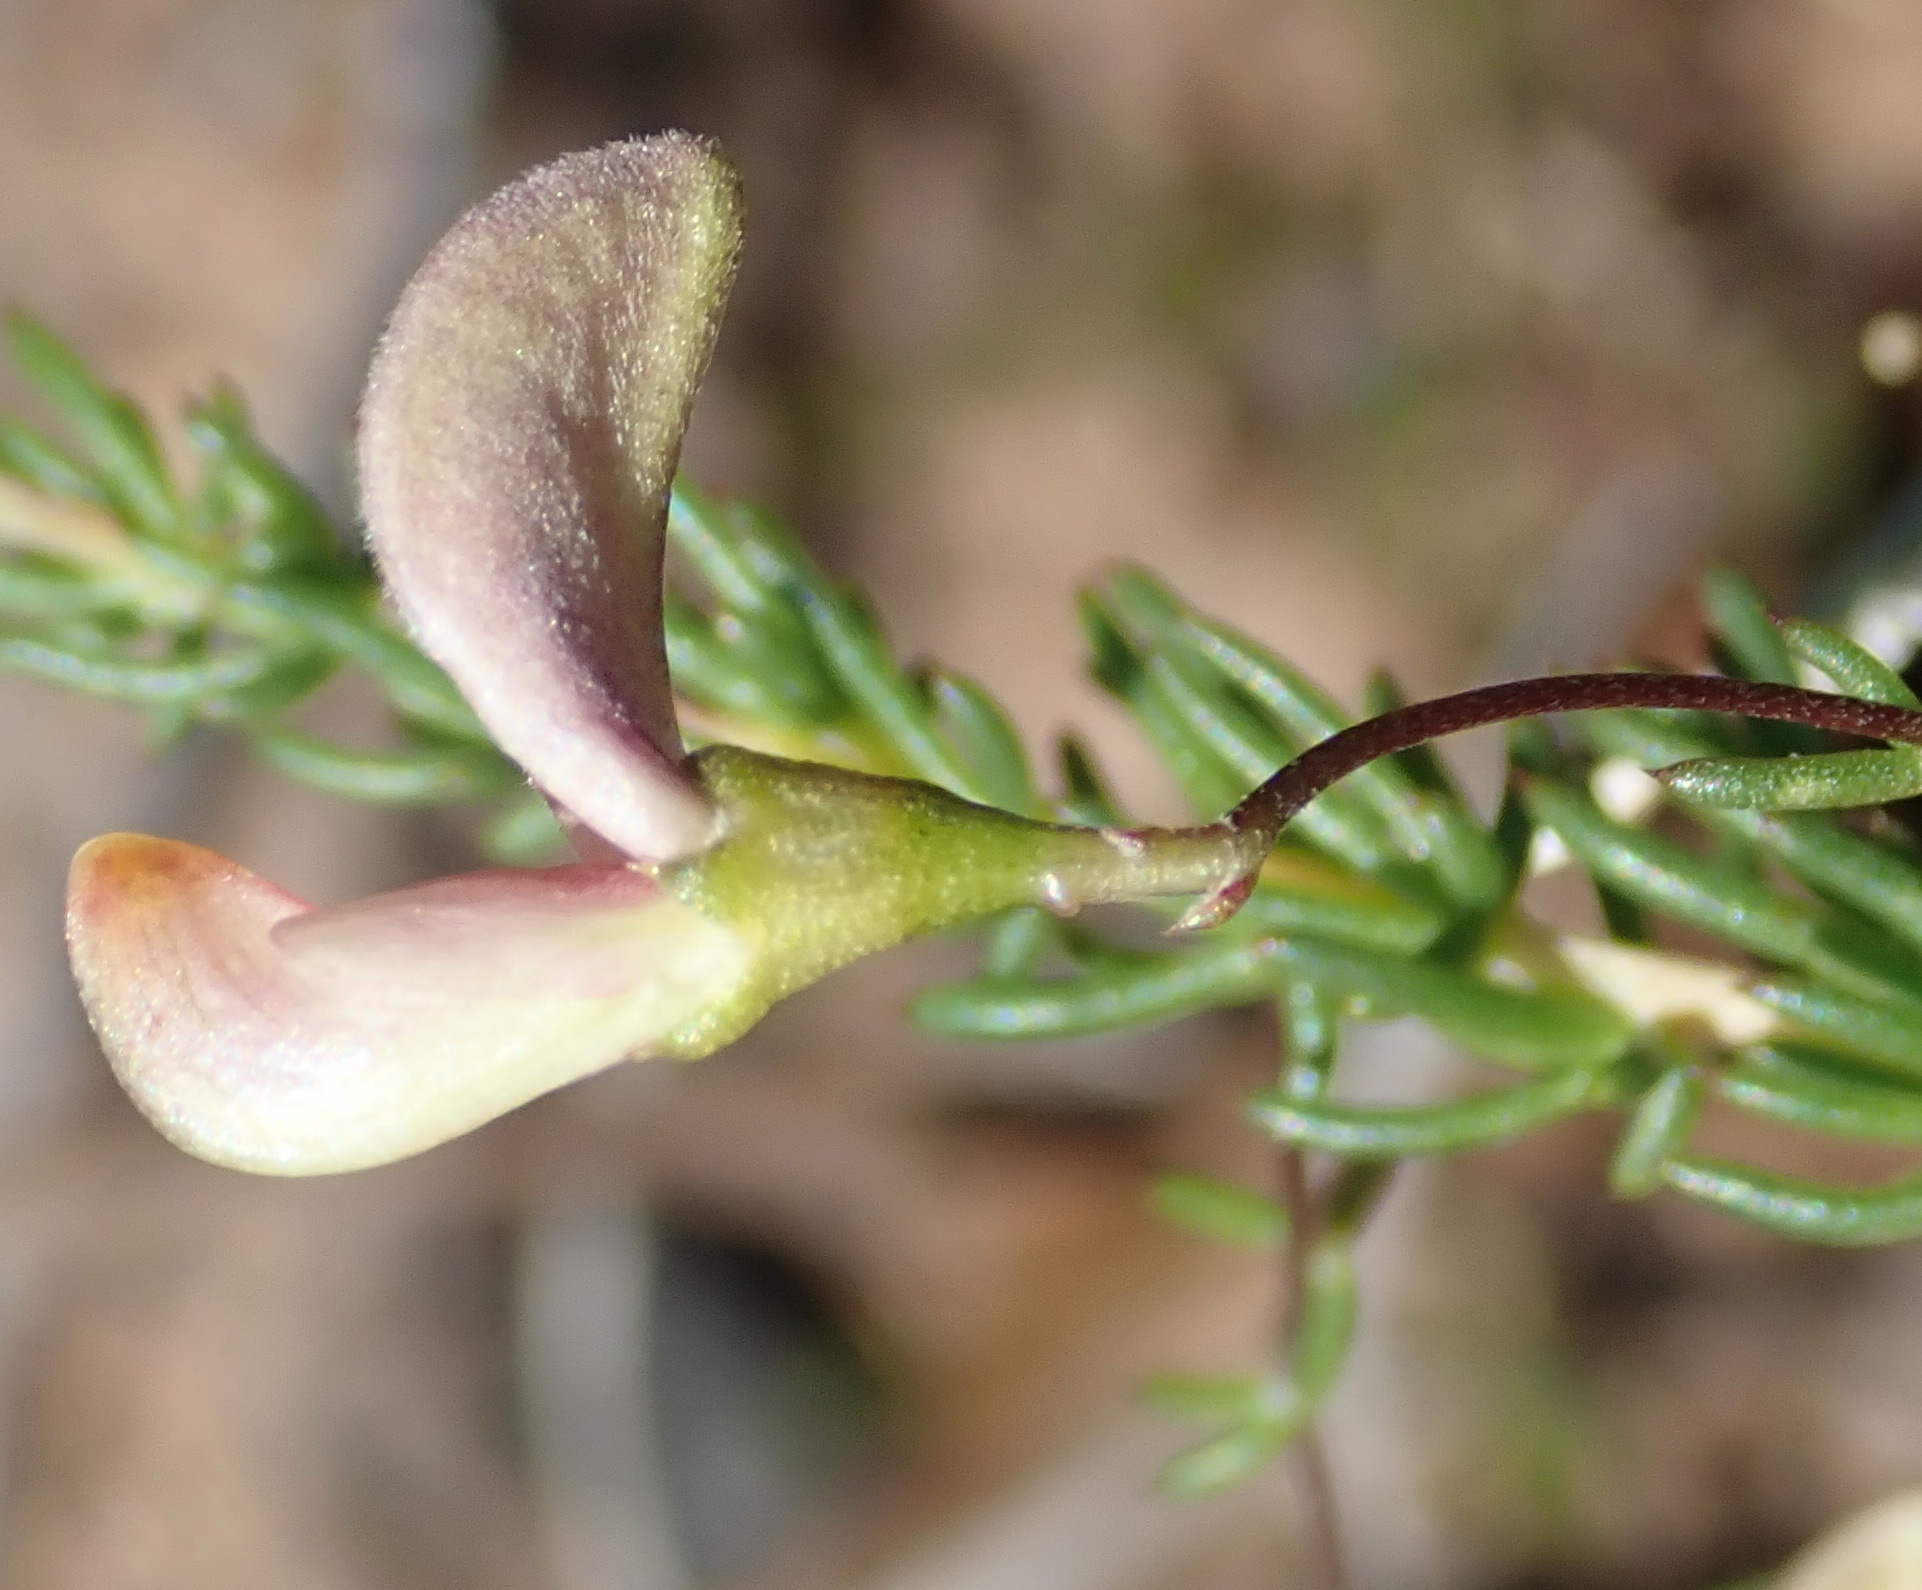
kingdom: Plantae
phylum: Tracheophyta
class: Magnoliopsida
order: Fabales
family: Fabaceae
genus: Aspalathus
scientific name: Aspalathus biflora
